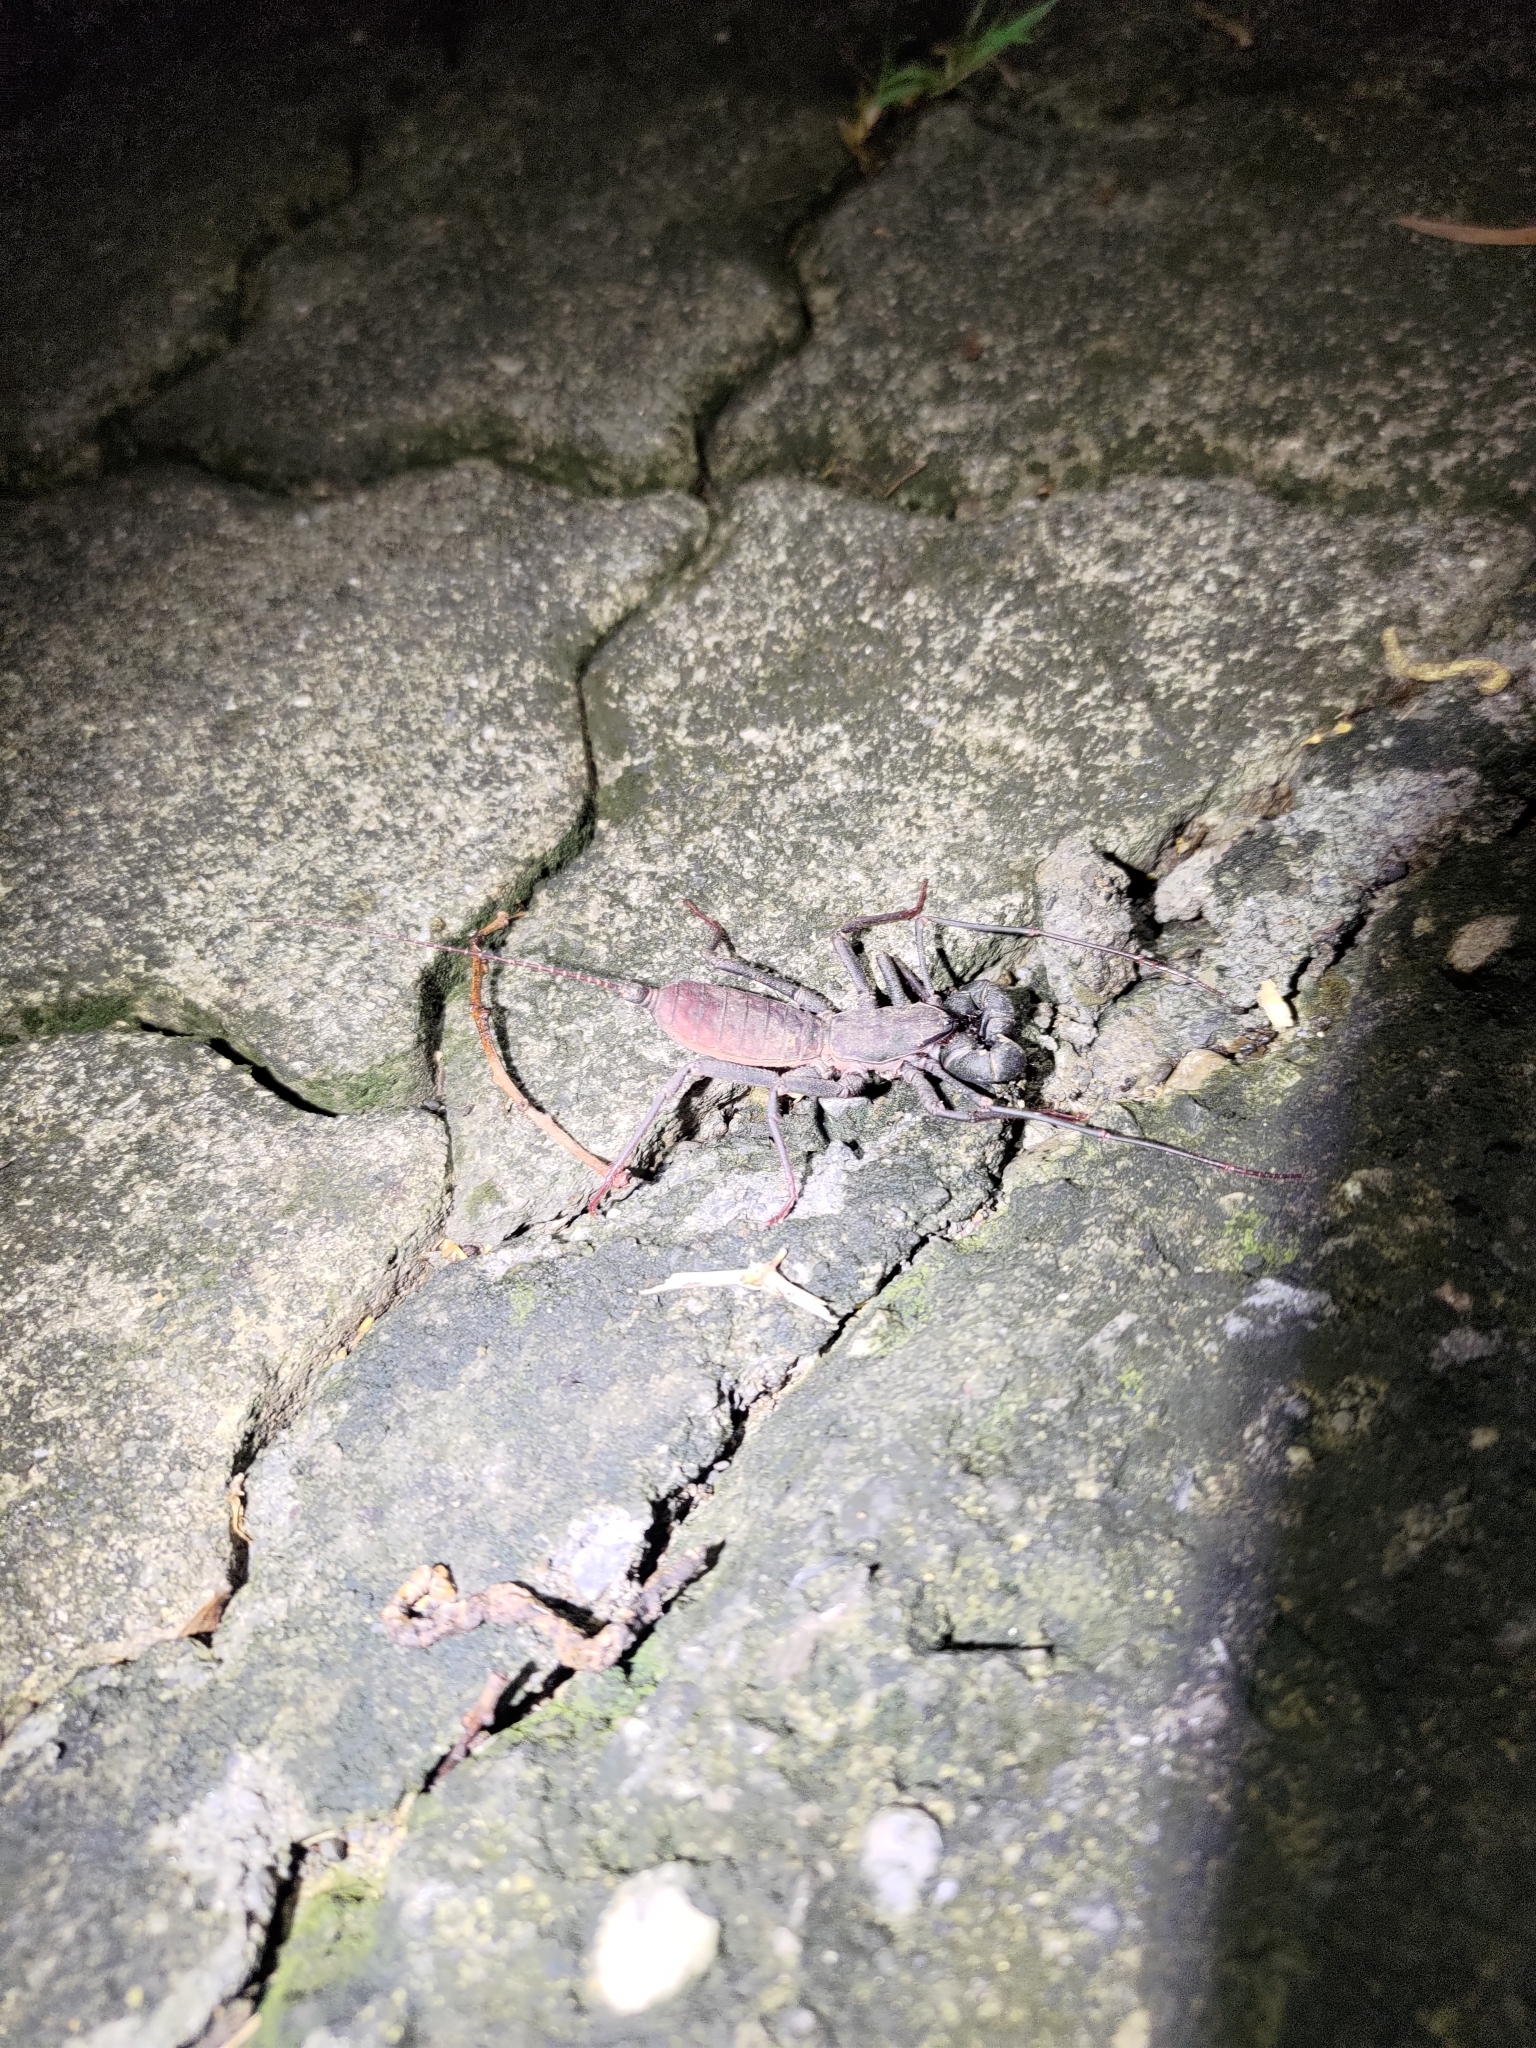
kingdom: Animalia
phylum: Arthropoda
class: Arachnida
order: Uropygi
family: Thelyphonidae
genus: Typopeltis
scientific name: Typopeltis crucifer
